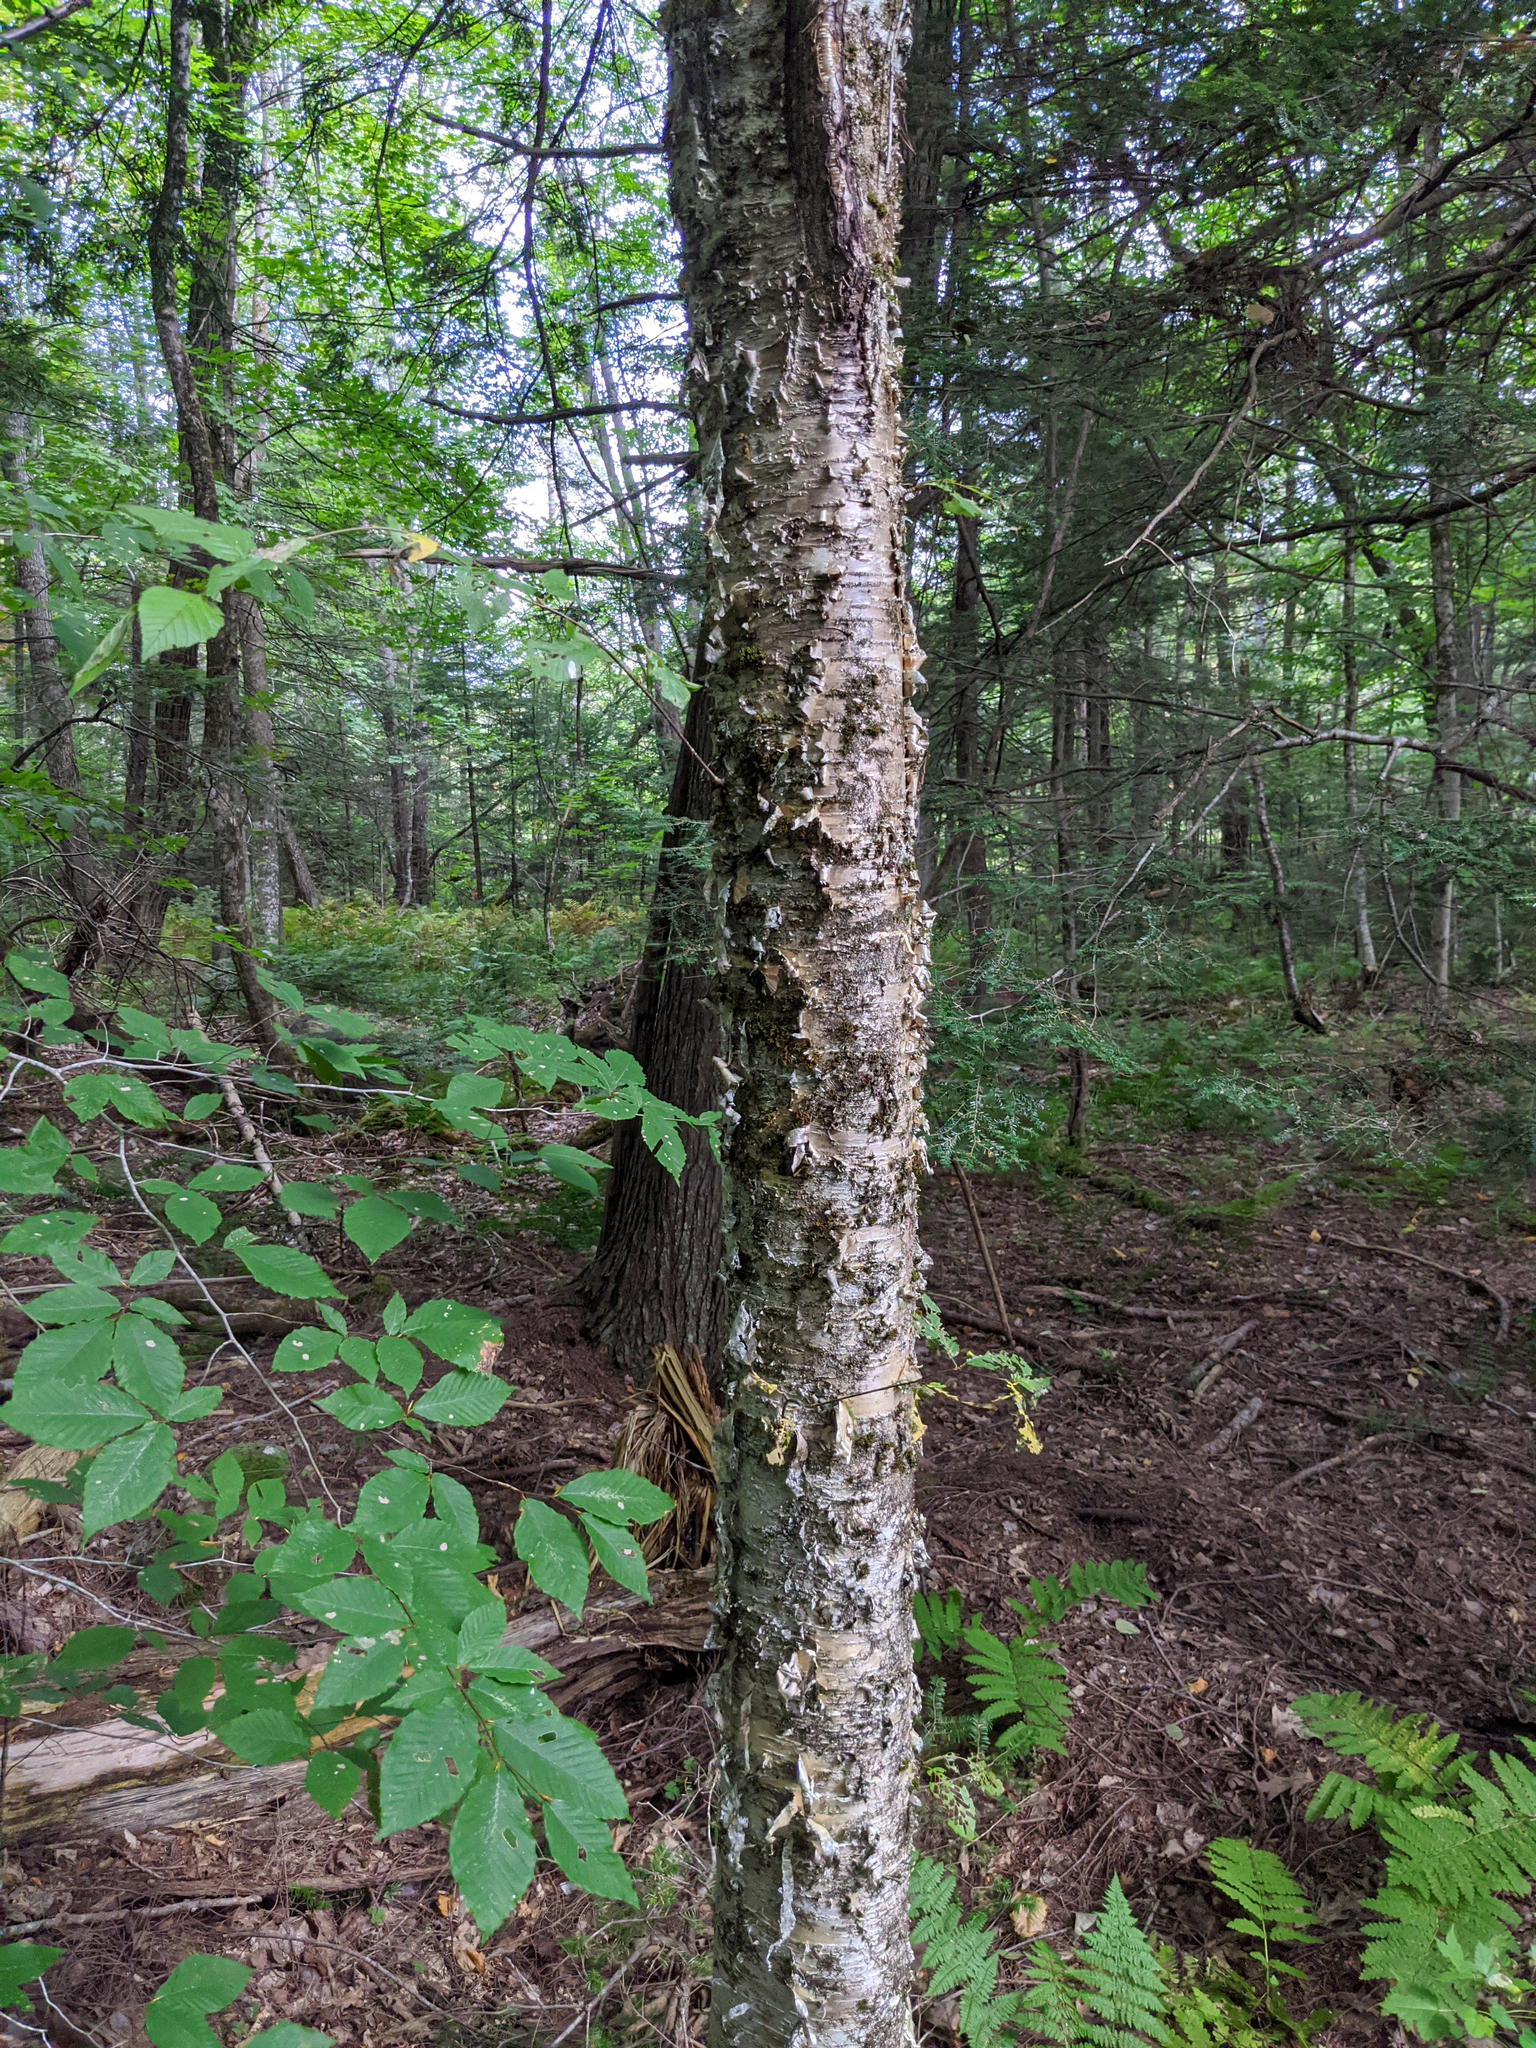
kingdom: Plantae
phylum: Tracheophyta
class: Magnoliopsida
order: Fagales
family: Betulaceae
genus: Betula
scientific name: Betula alleghaniensis
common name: Yellow birch
